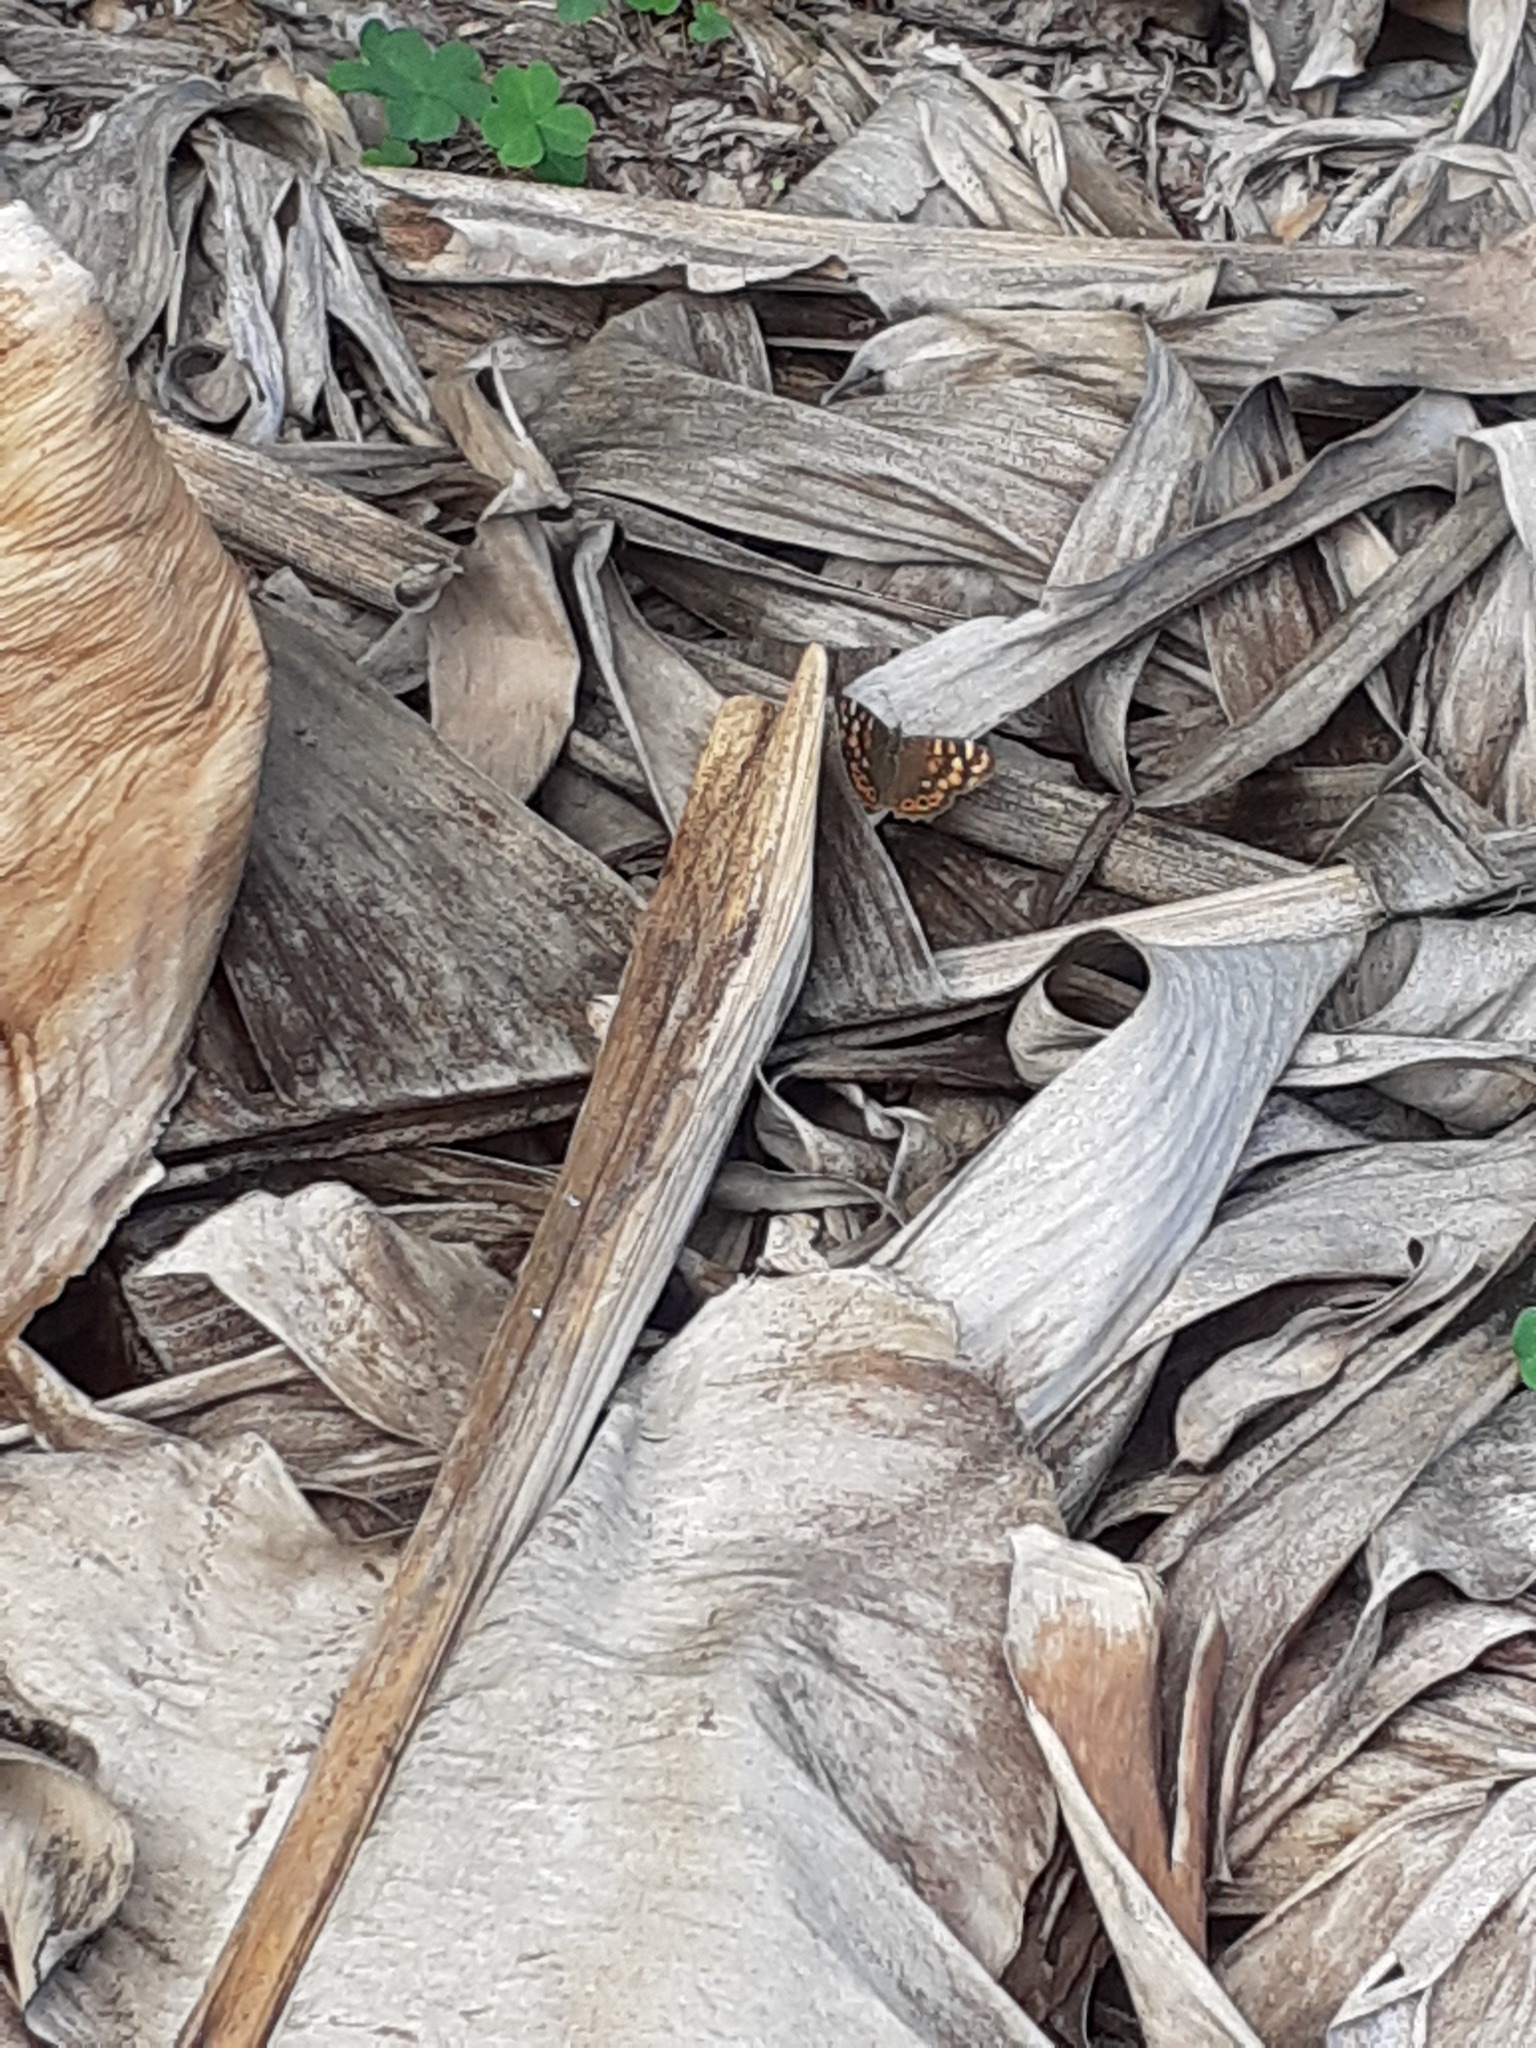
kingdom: Animalia
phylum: Arthropoda
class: Insecta
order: Lepidoptera
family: Nymphalidae
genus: Pararge
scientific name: Pararge aegeria
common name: Speckled wood
